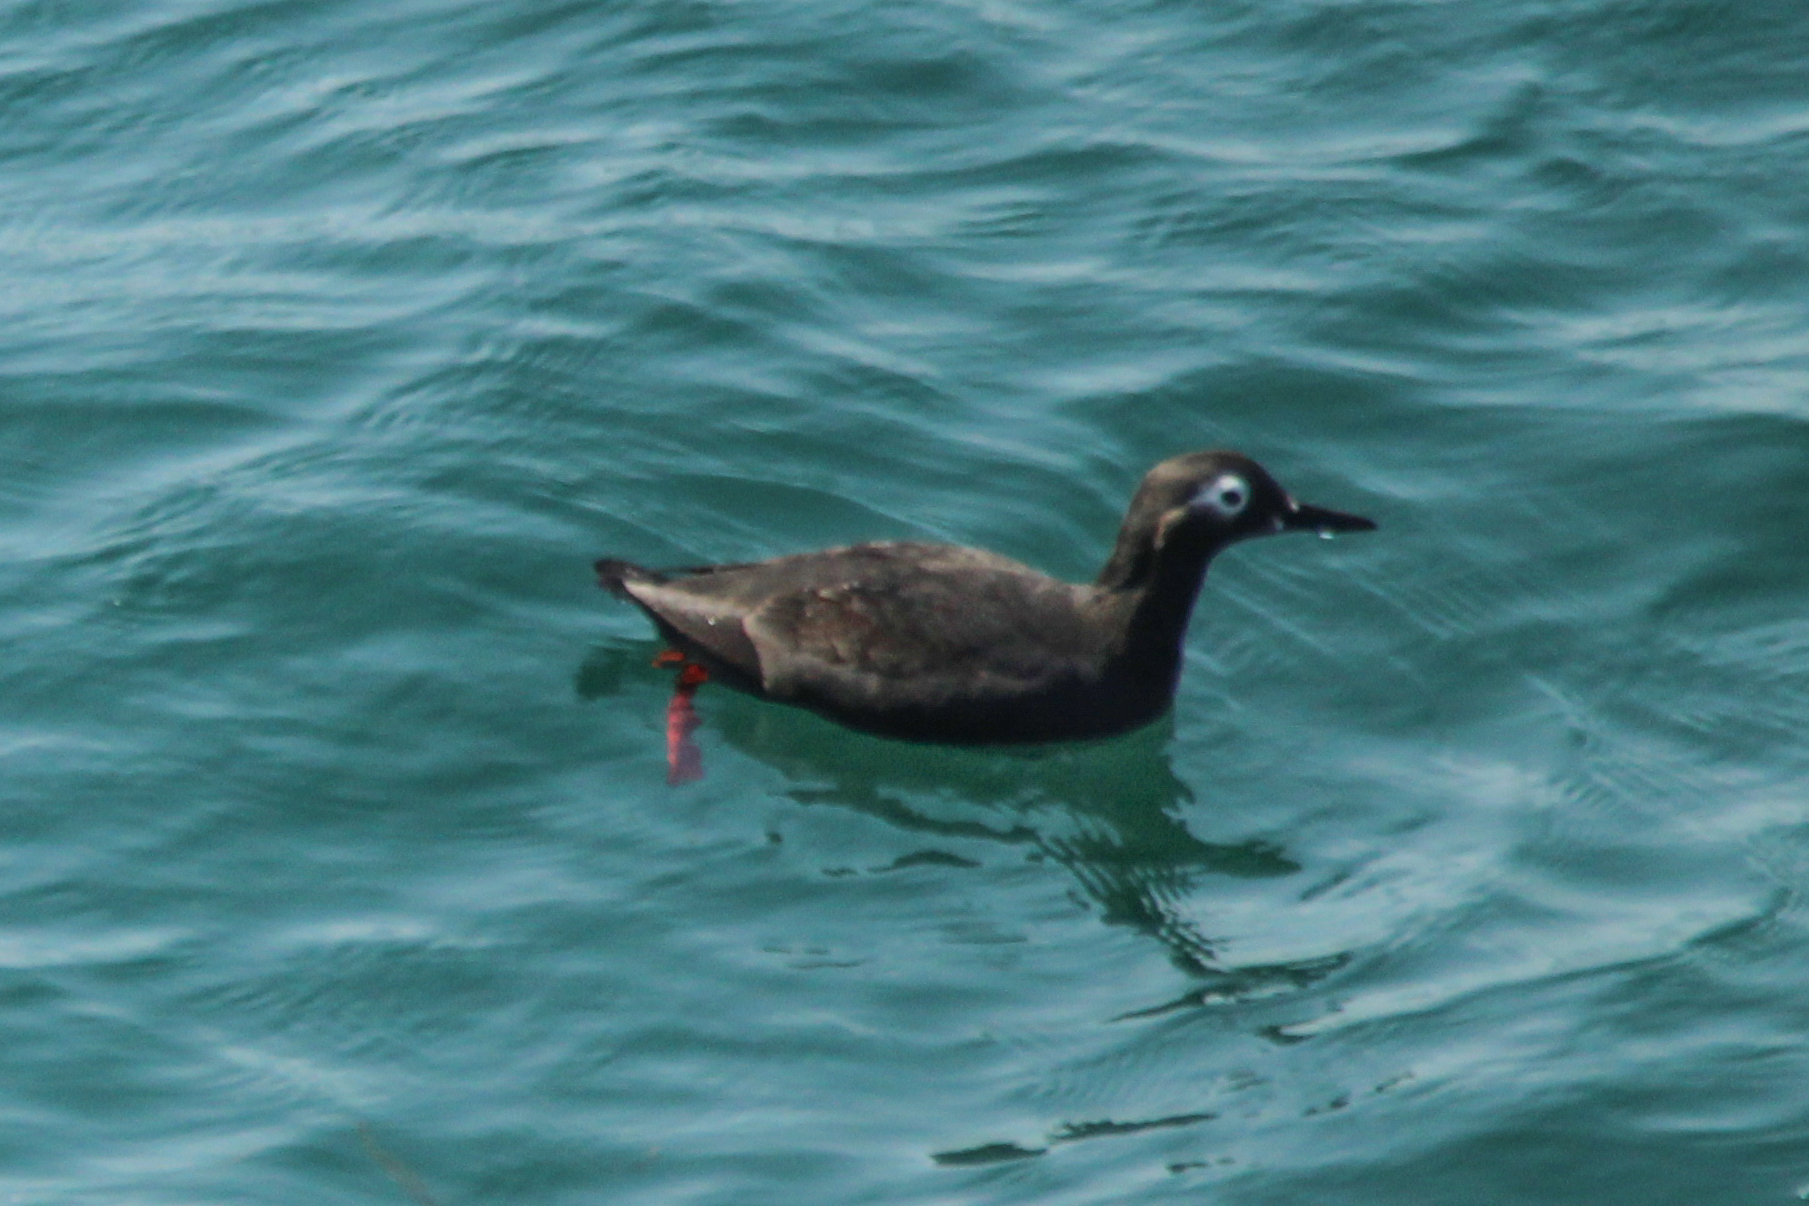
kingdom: Animalia
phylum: Chordata
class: Aves
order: Charadriiformes
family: Alcidae
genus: Cepphus
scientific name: Cepphus carbo
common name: Spectacled guillemot
